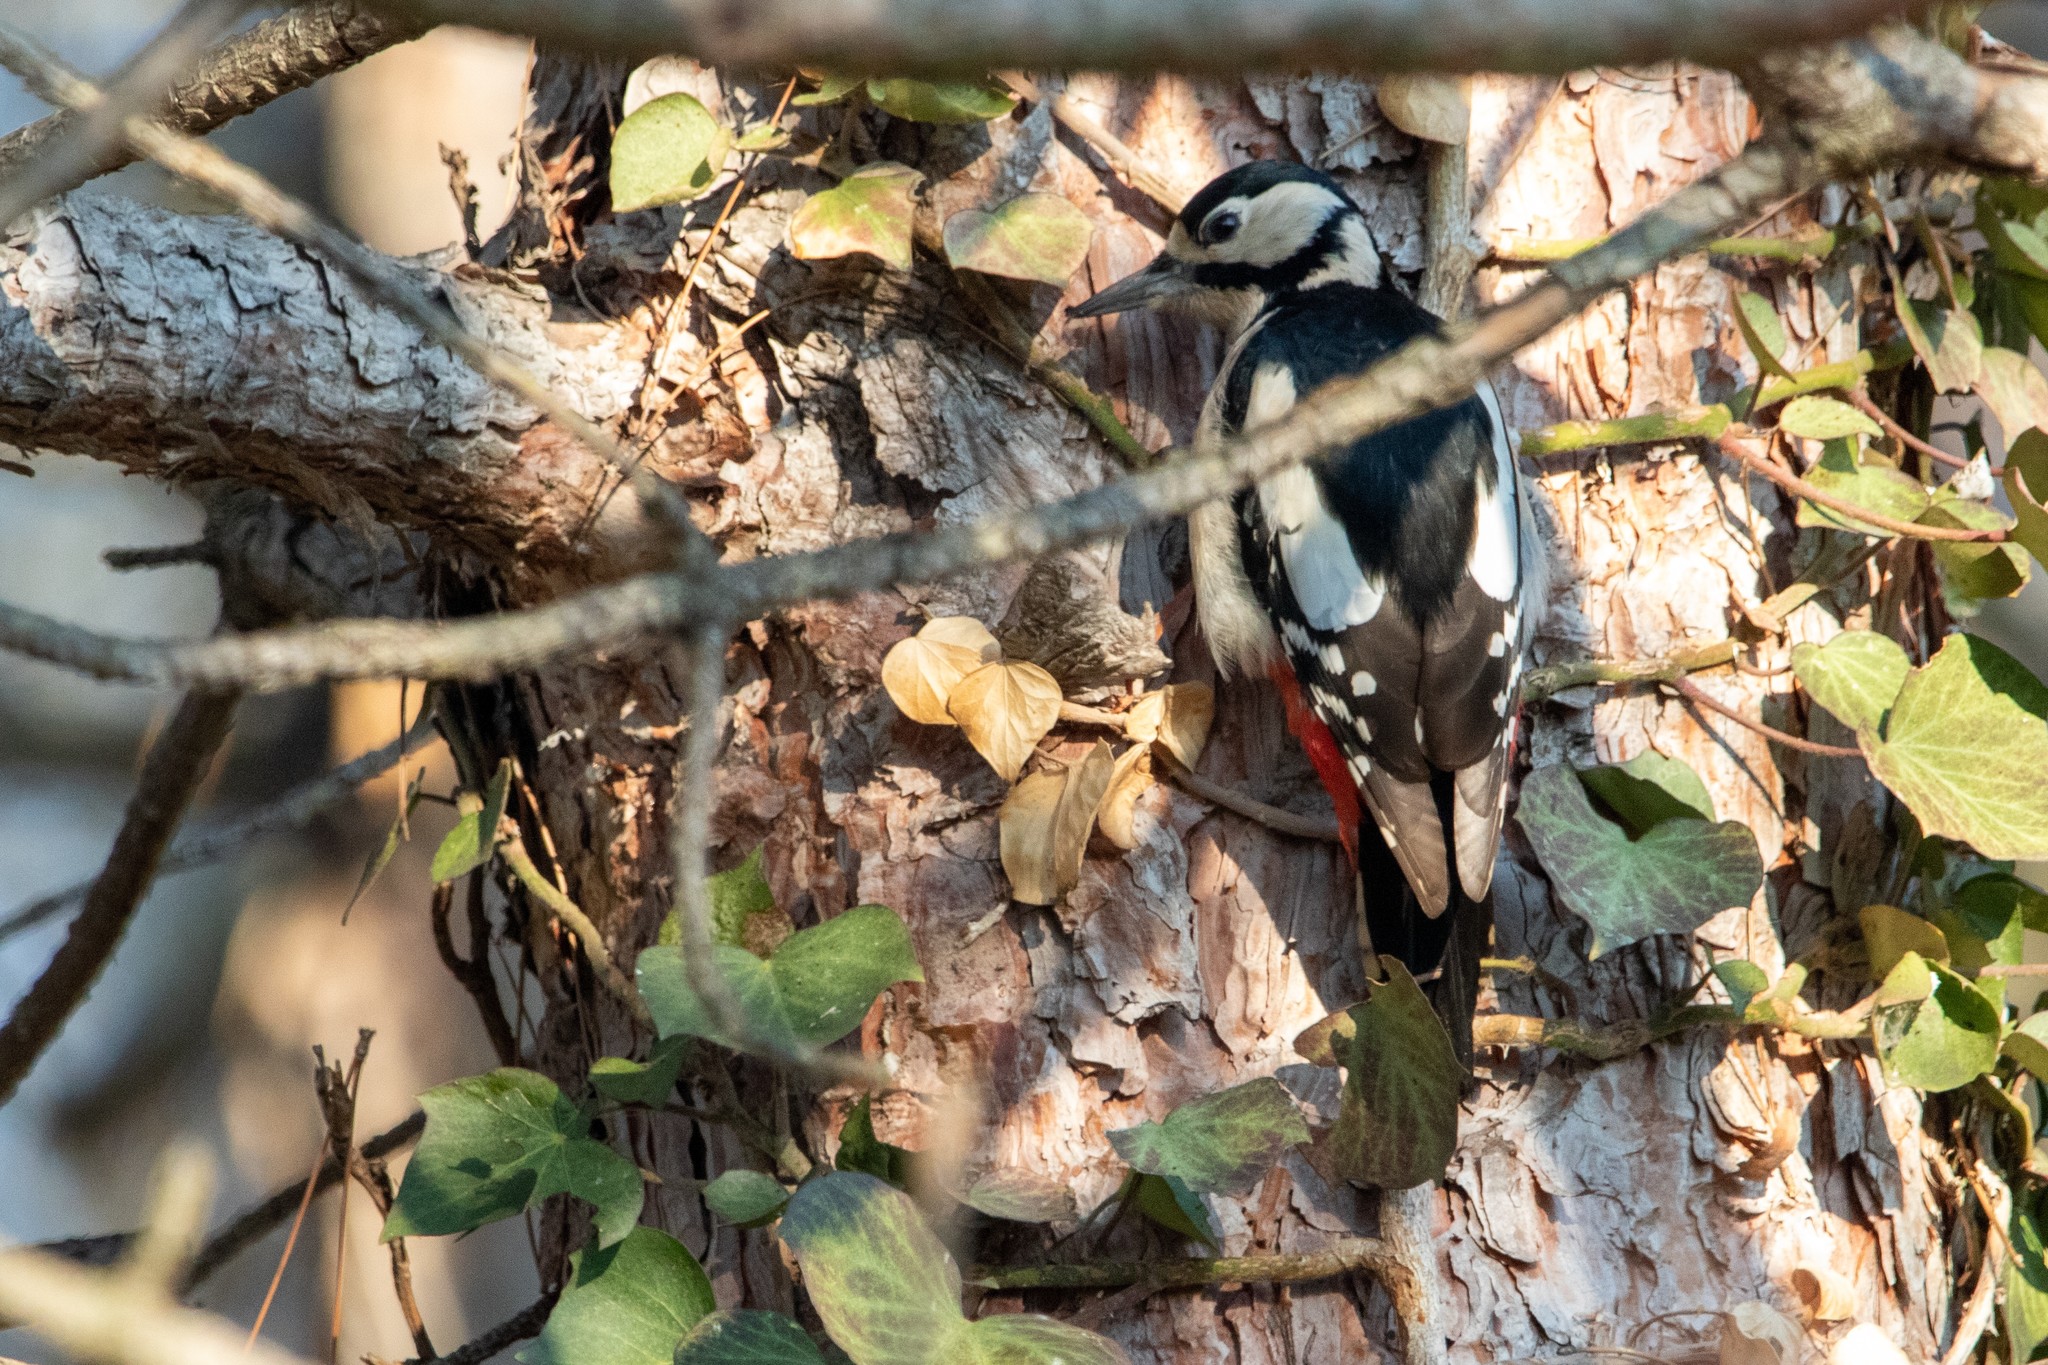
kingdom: Animalia
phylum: Chordata
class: Aves
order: Piciformes
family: Picidae
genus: Dendrocopos
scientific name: Dendrocopos major
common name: Great spotted woodpecker
